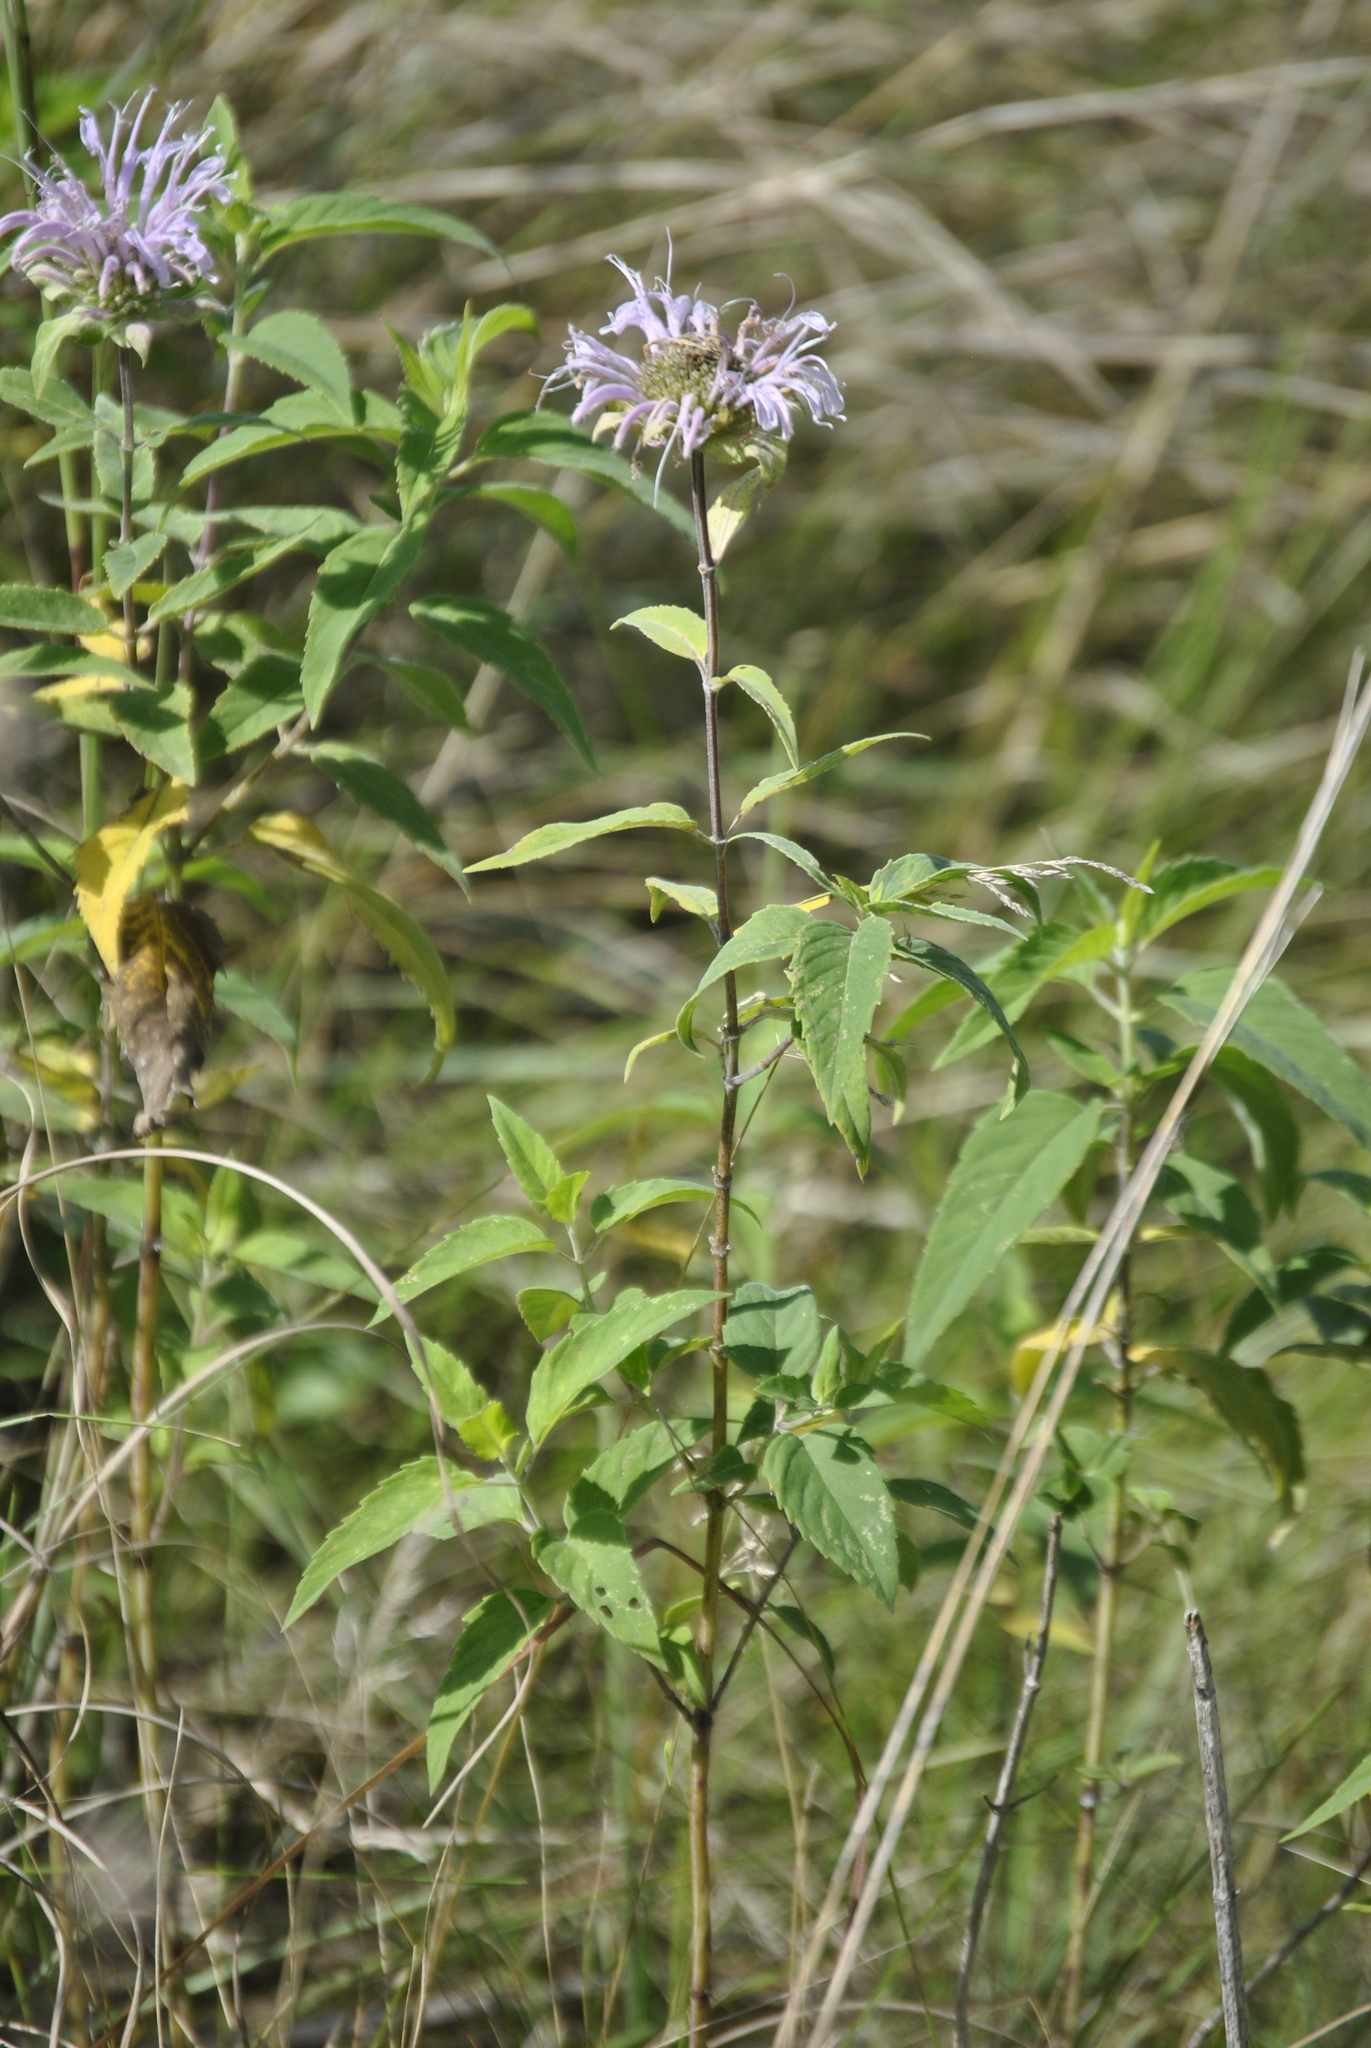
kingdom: Plantae
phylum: Tracheophyta
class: Magnoliopsida
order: Lamiales
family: Lamiaceae
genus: Monarda
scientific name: Monarda fistulosa
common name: Purple beebalm
